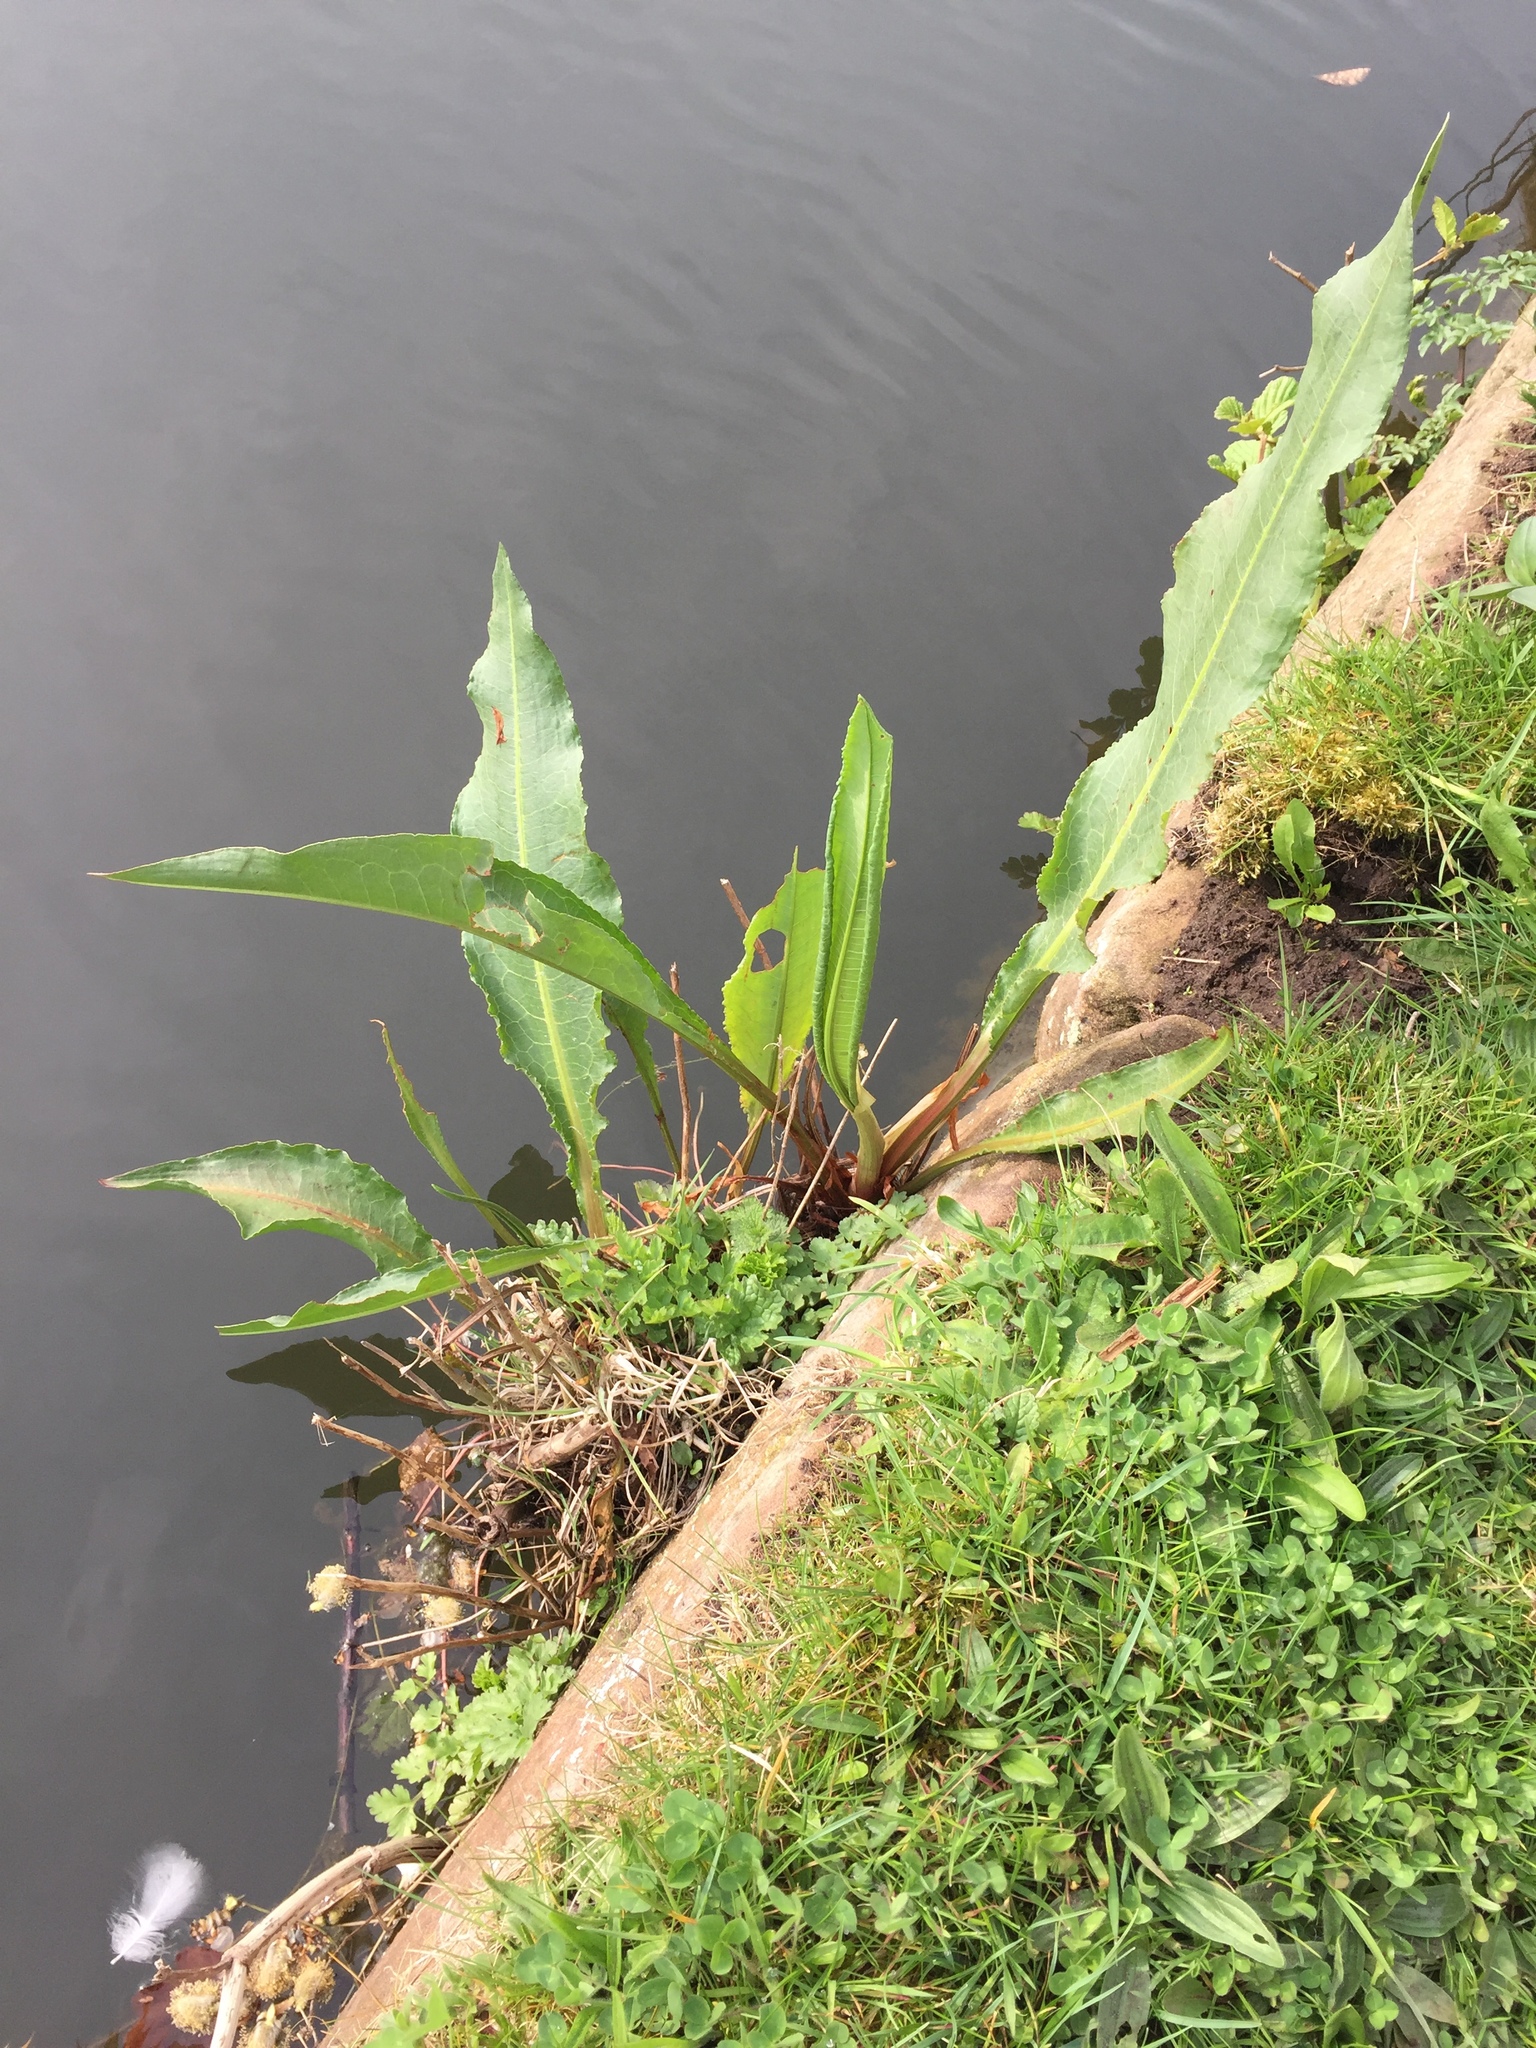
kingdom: Plantae
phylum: Tracheophyta
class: Magnoliopsida
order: Caryophyllales
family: Polygonaceae
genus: Rumex
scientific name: Rumex hydrolapathum
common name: Water dock
